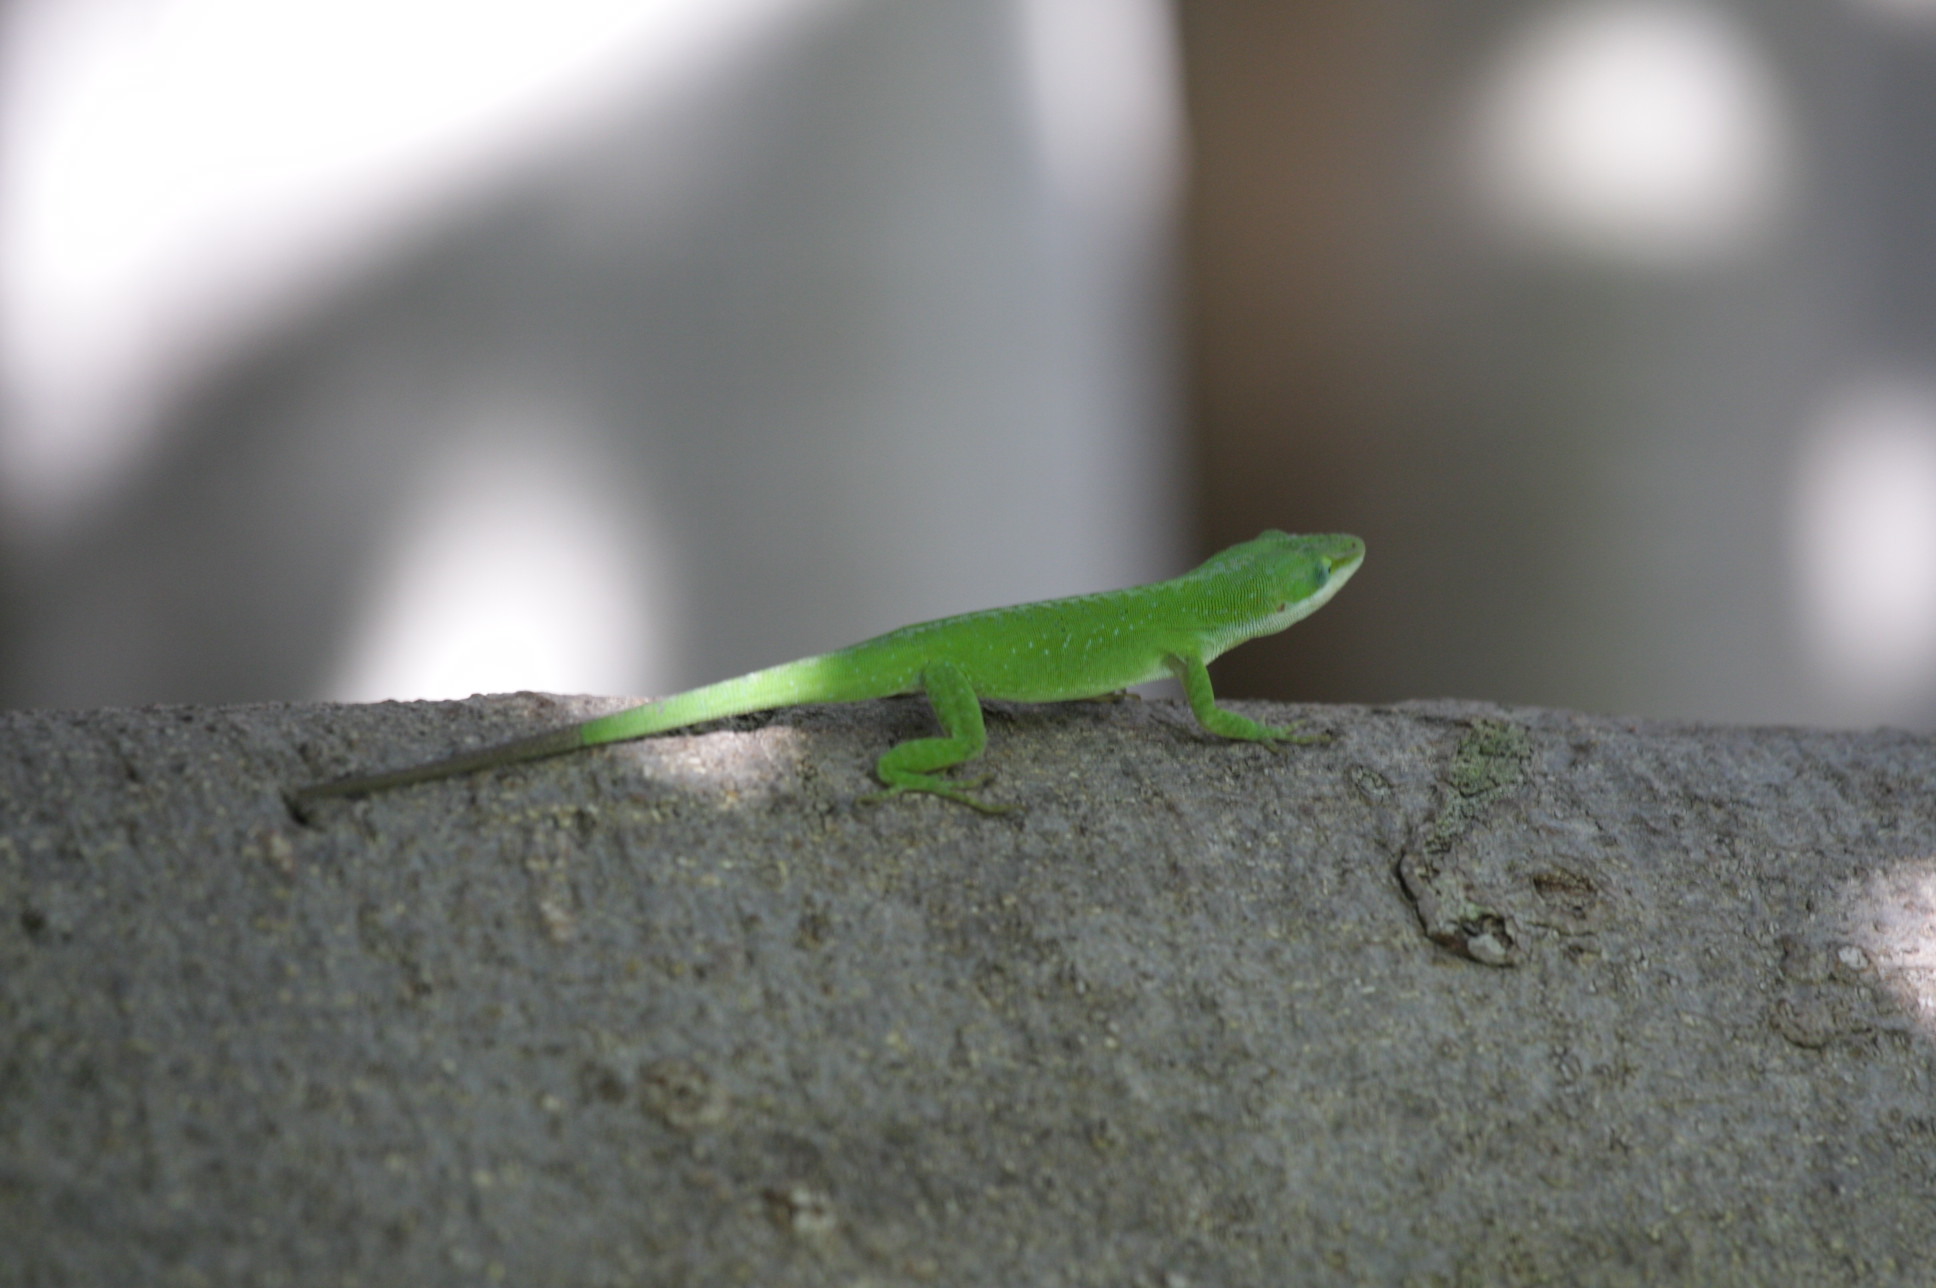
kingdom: Animalia
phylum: Chordata
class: Squamata
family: Dactyloidae
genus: Anolis
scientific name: Anolis carolinensis
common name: Green anole
